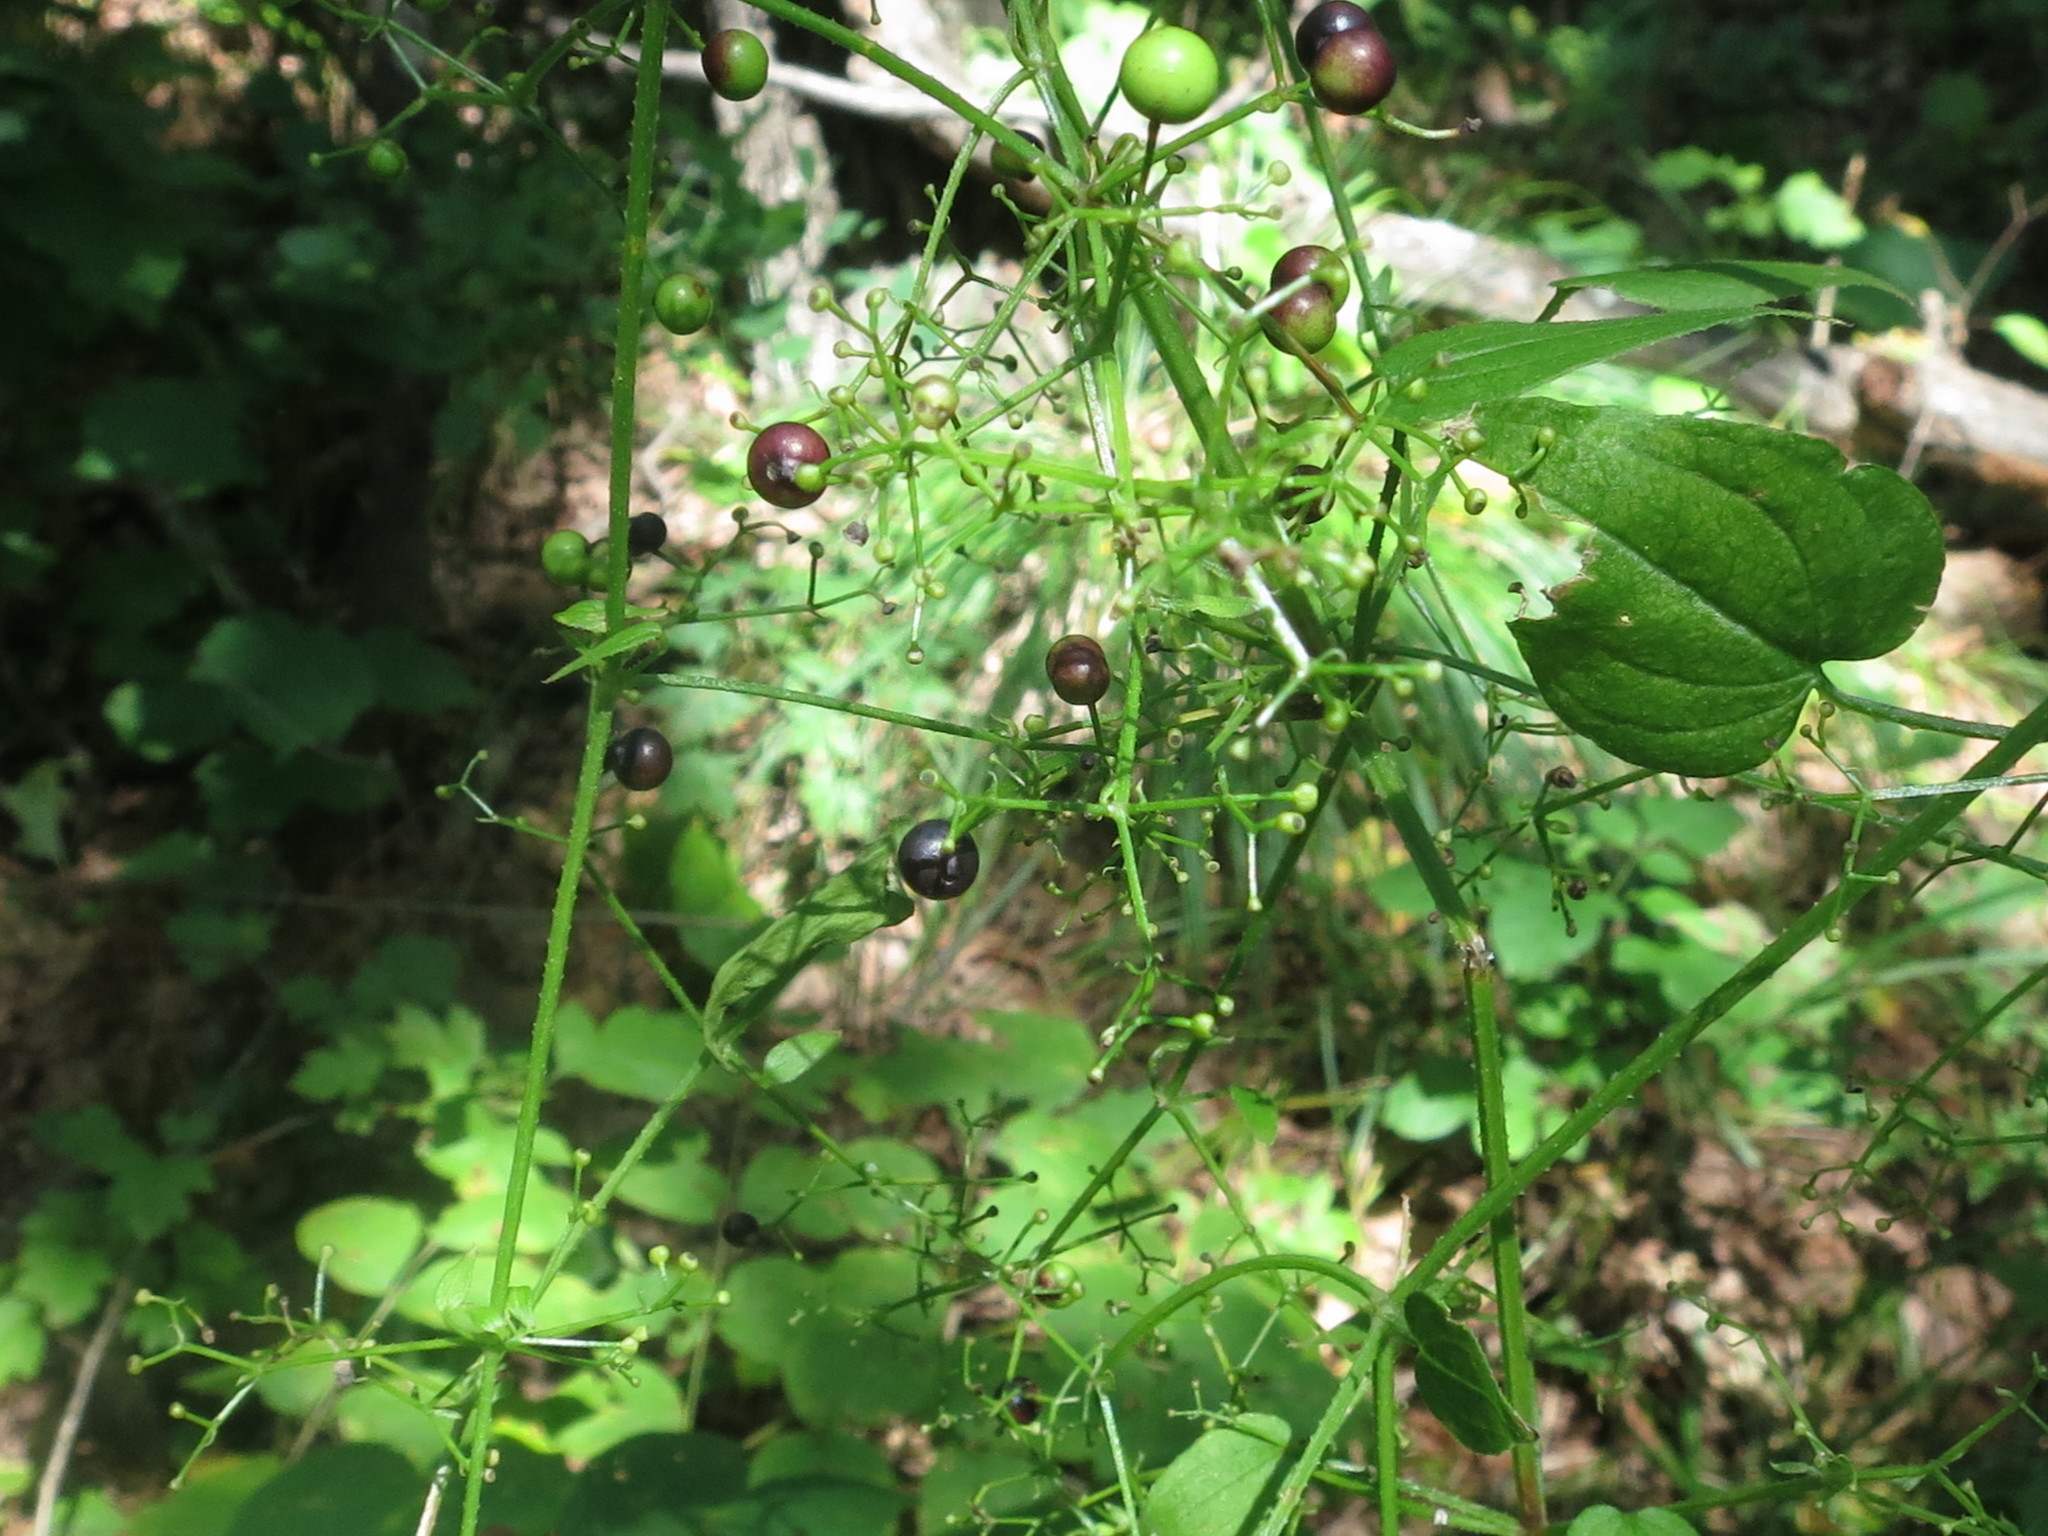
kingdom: Plantae
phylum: Tracheophyta
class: Magnoliopsida
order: Gentianales
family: Rubiaceae
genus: Rubia
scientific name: Rubia cordifolia
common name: Indian madder
